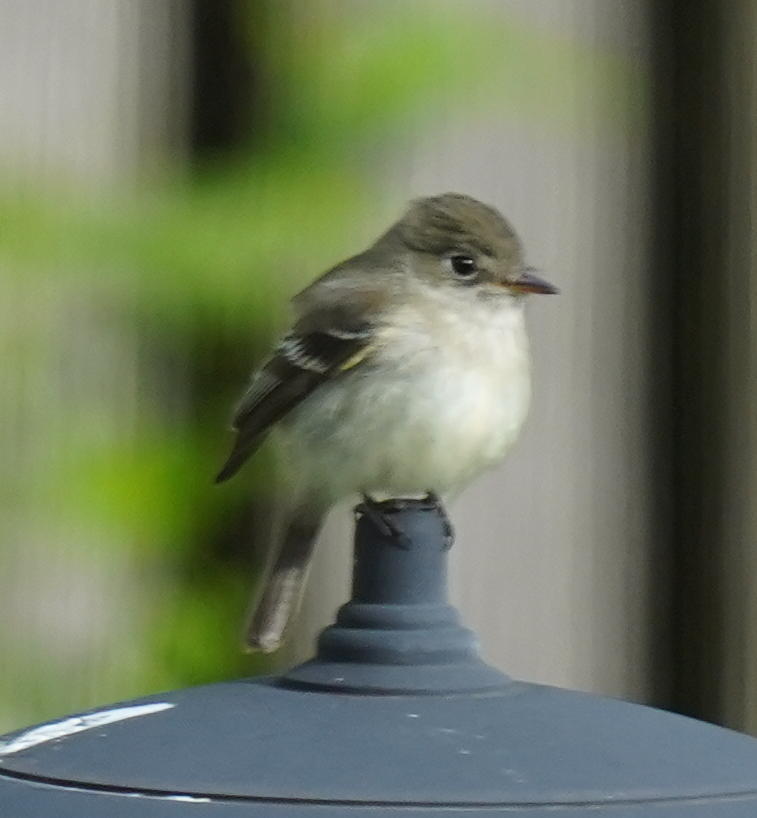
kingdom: Animalia
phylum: Chordata
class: Aves
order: Passeriformes
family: Tyrannidae
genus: Empidonax
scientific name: Empidonax minimus
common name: Least flycatcher
